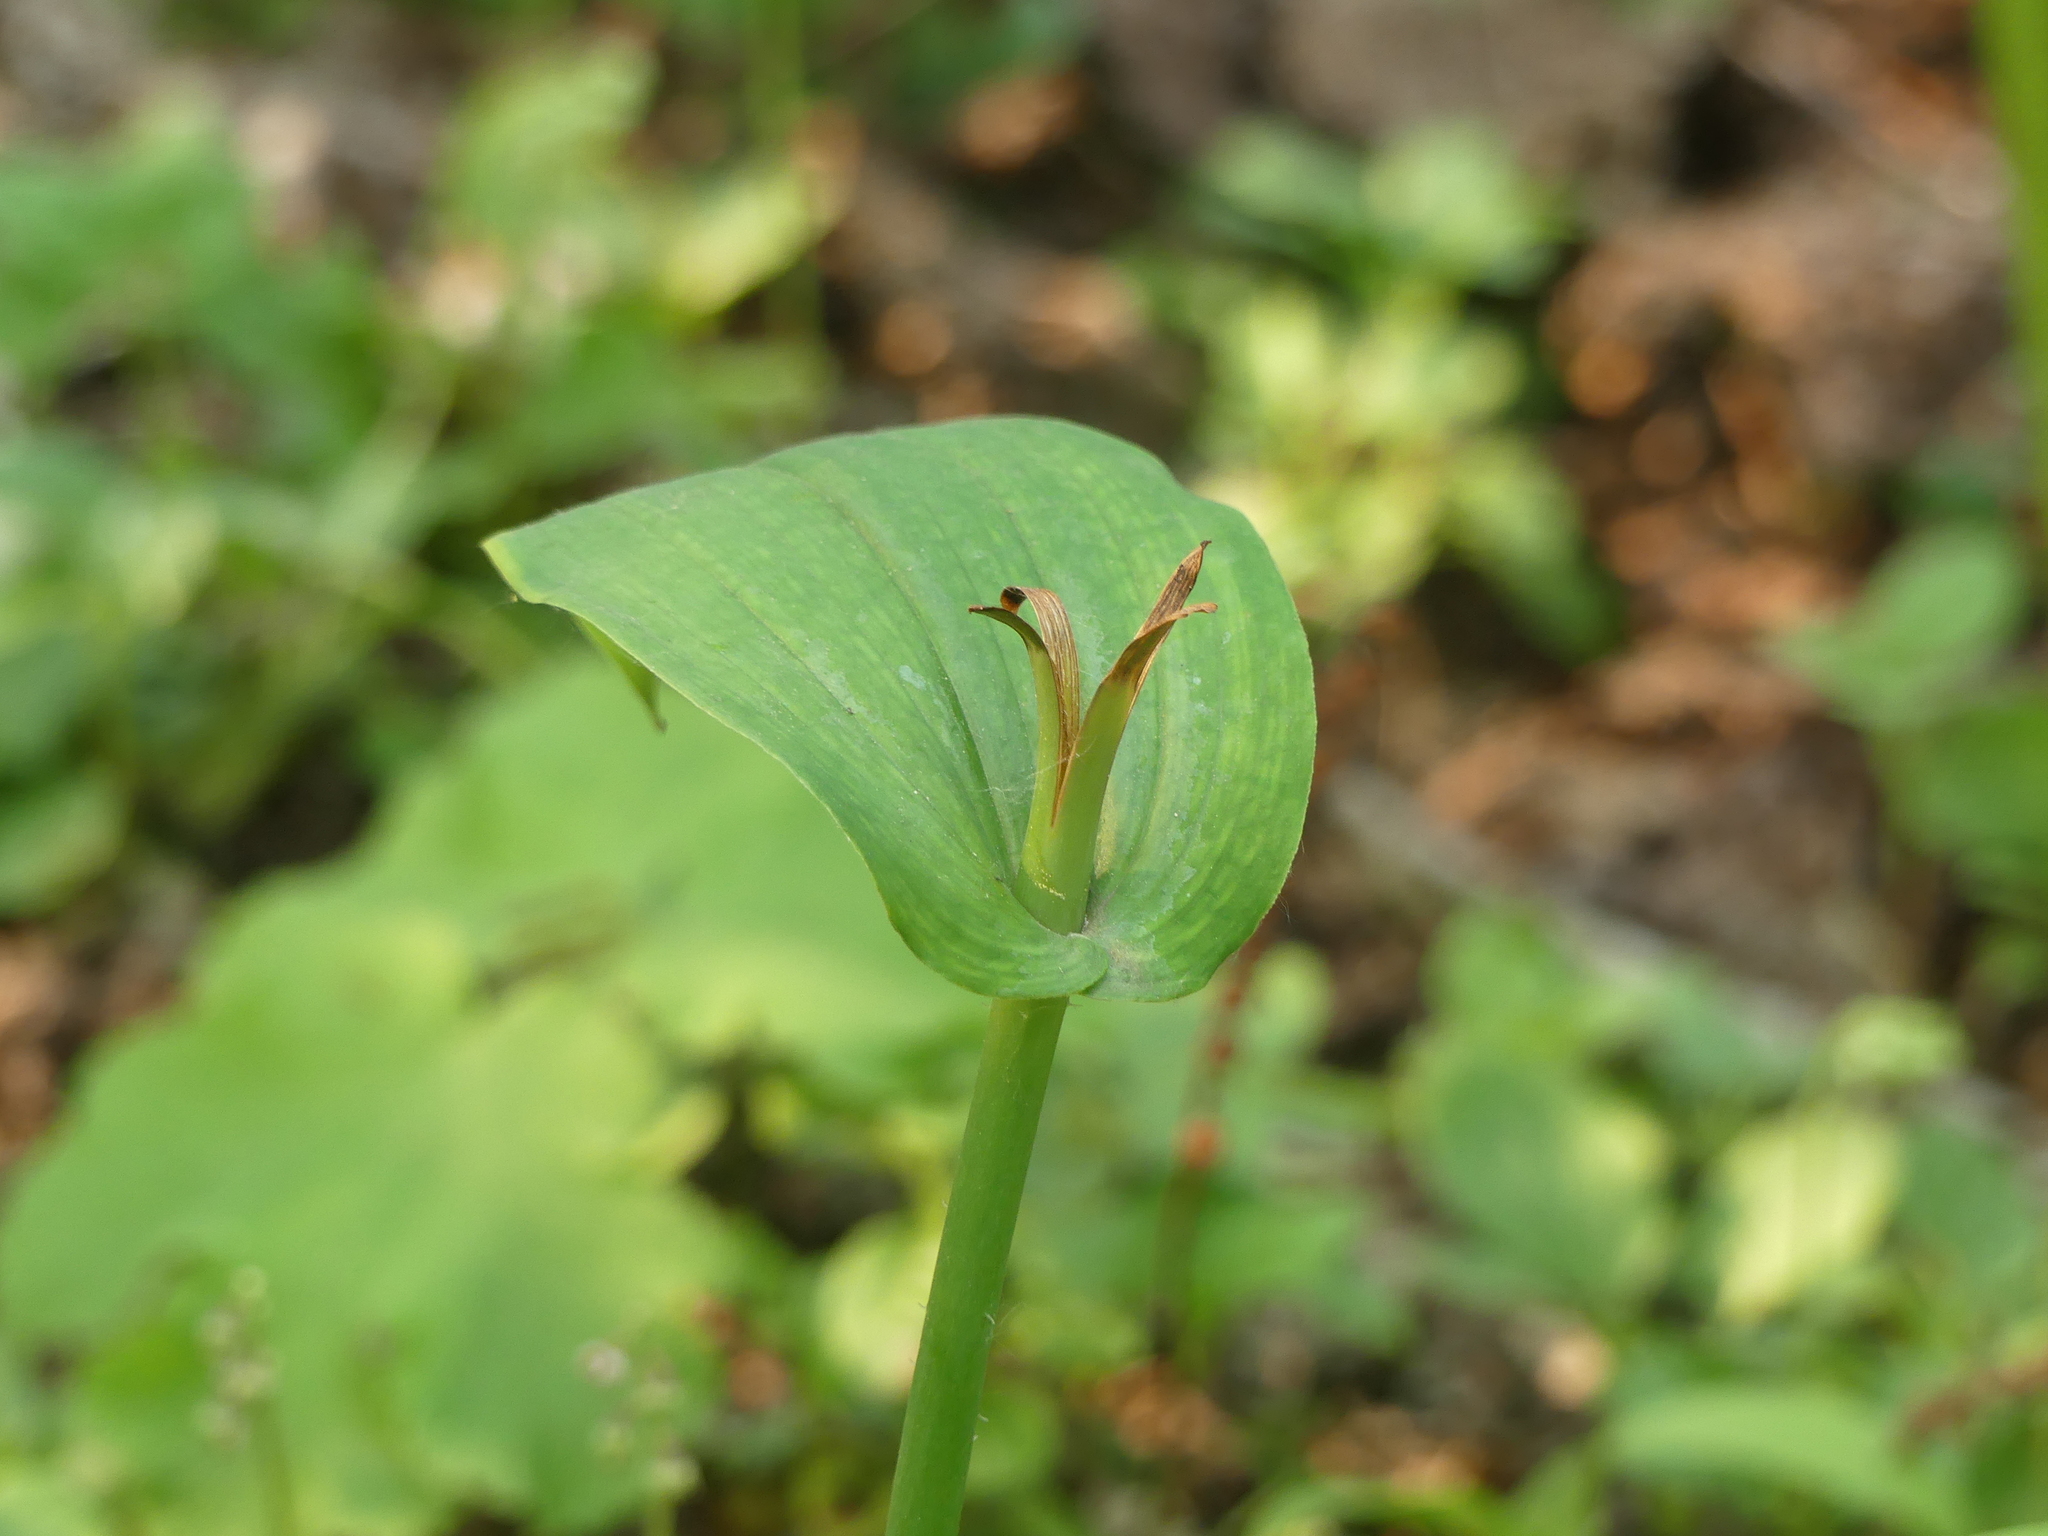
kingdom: Plantae
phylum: Tracheophyta
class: Liliopsida
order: Liliales
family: Liliaceae
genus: Streptopus
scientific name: Streptopus amplexifolius
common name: Clasp twisted stalk
